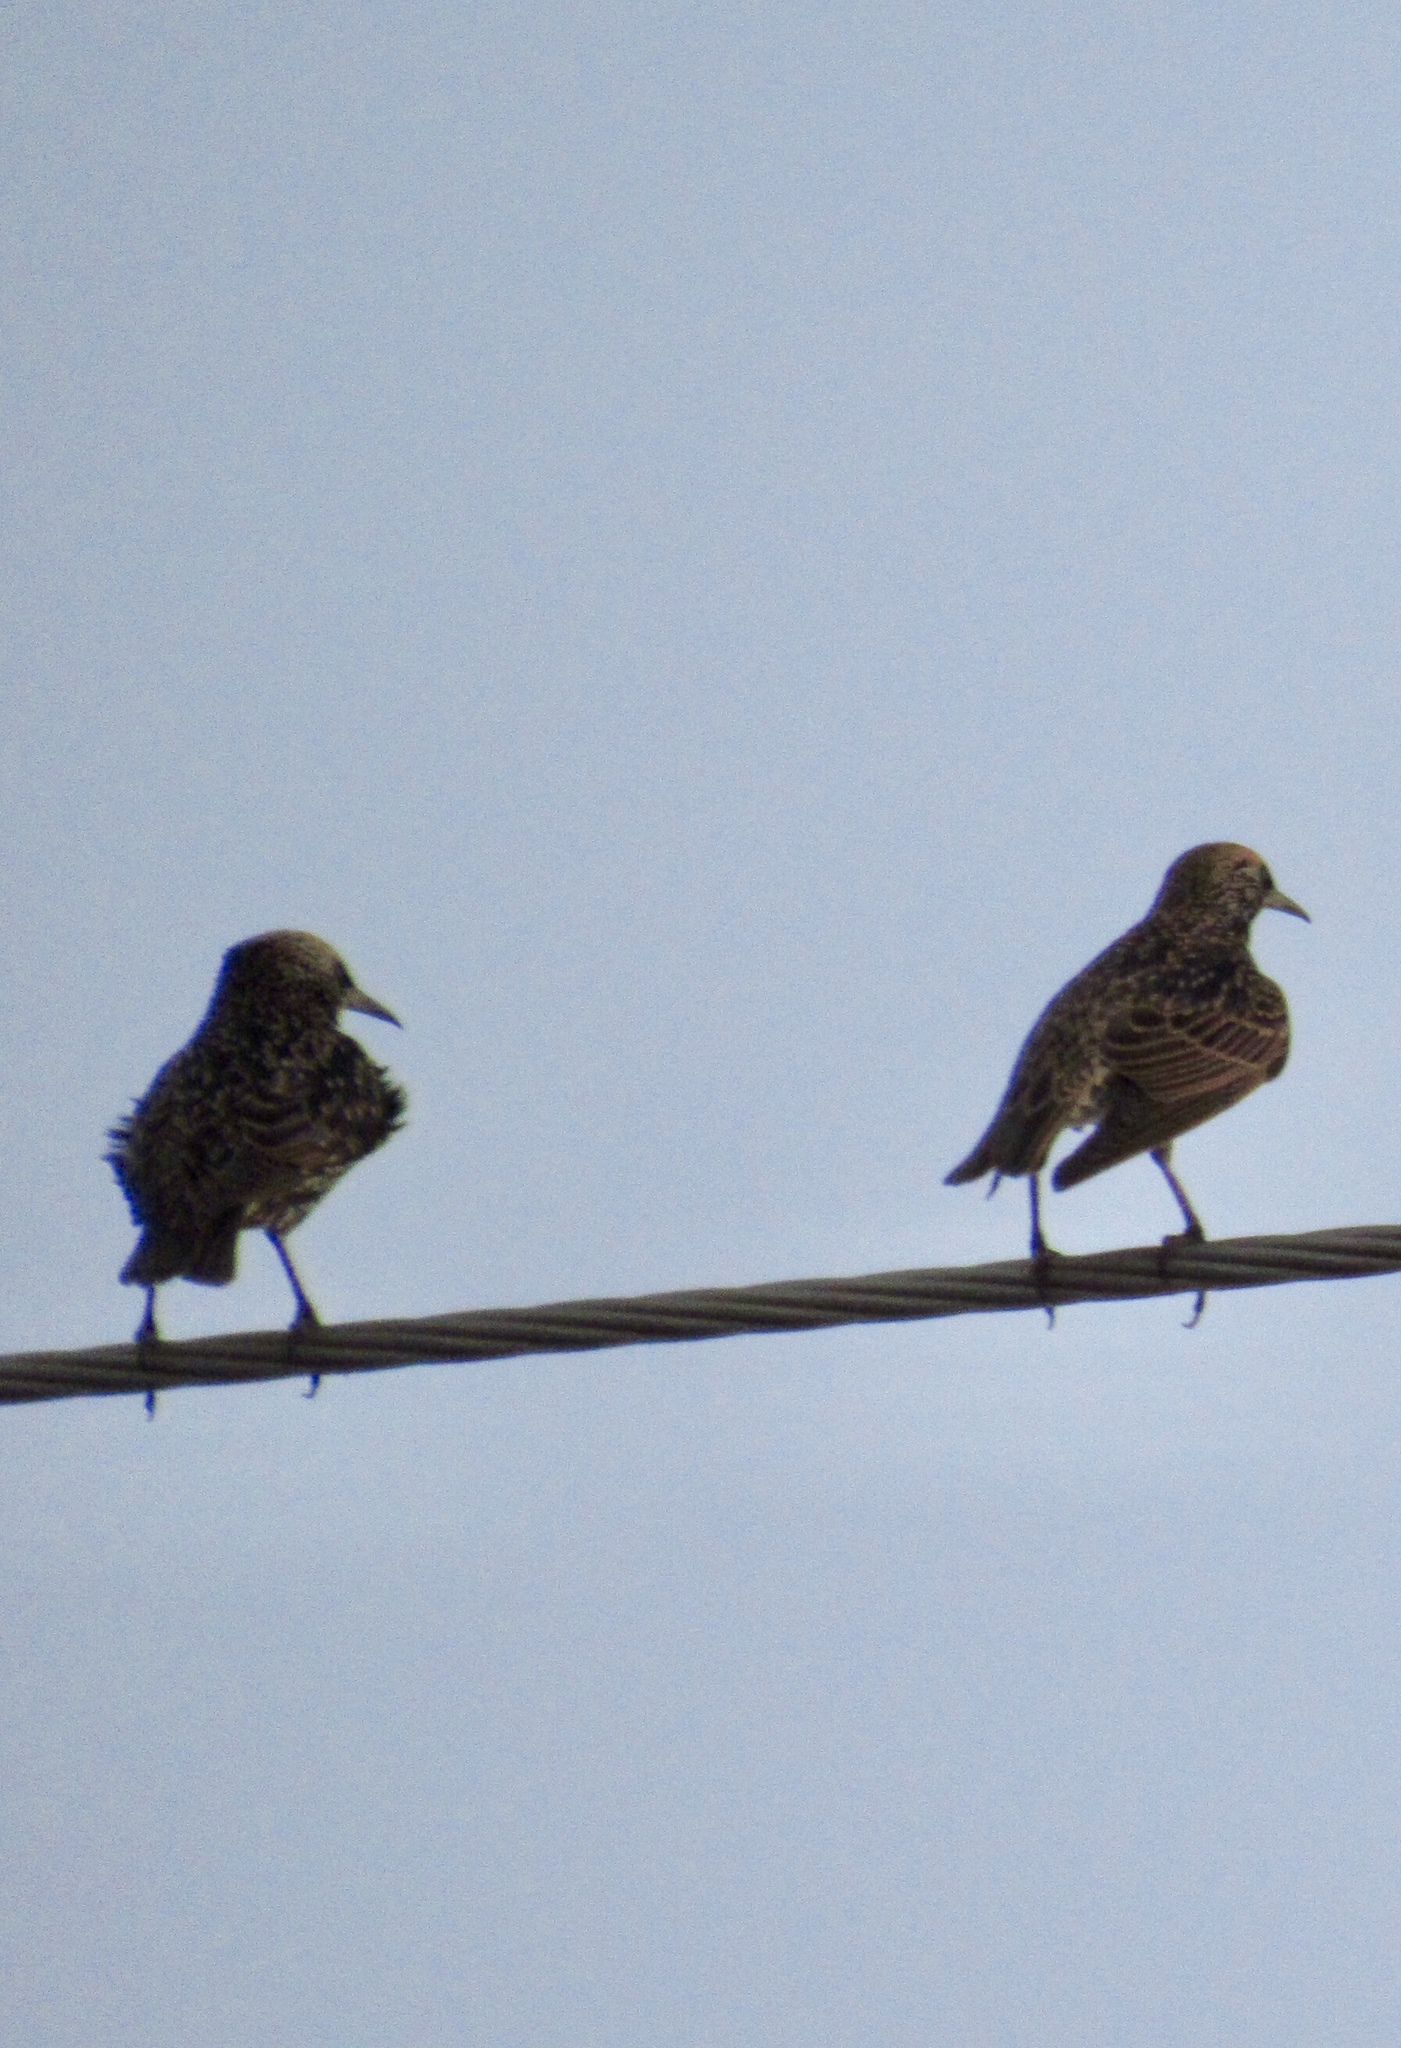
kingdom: Animalia
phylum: Chordata
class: Aves
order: Passeriformes
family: Sturnidae
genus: Sturnus
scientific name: Sturnus vulgaris
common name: Common starling
